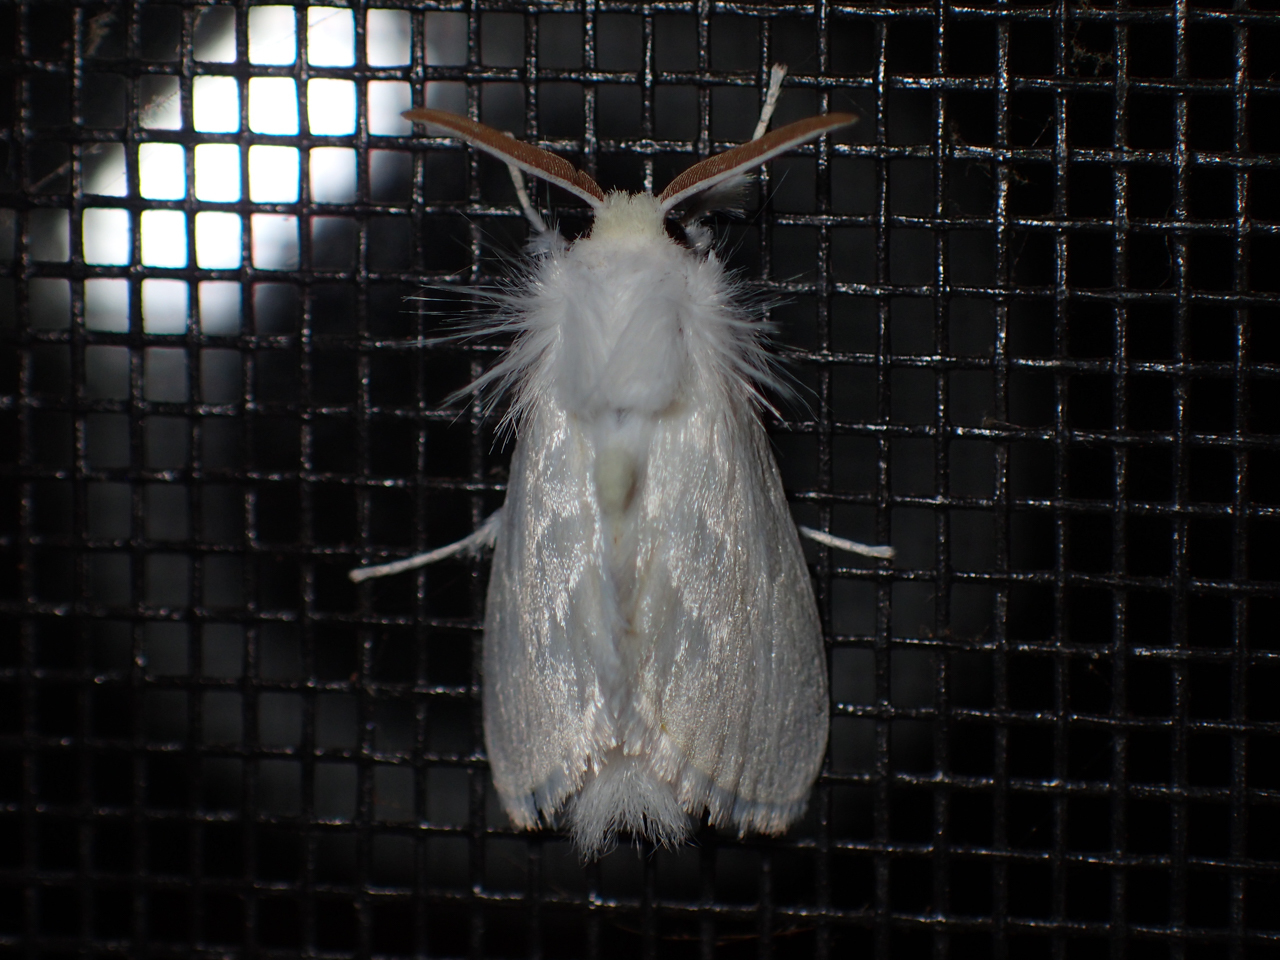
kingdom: Animalia
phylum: Arthropoda
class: Insecta
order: Lepidoptera
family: Megalopygidae
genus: Norape
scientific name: Norape cretata
